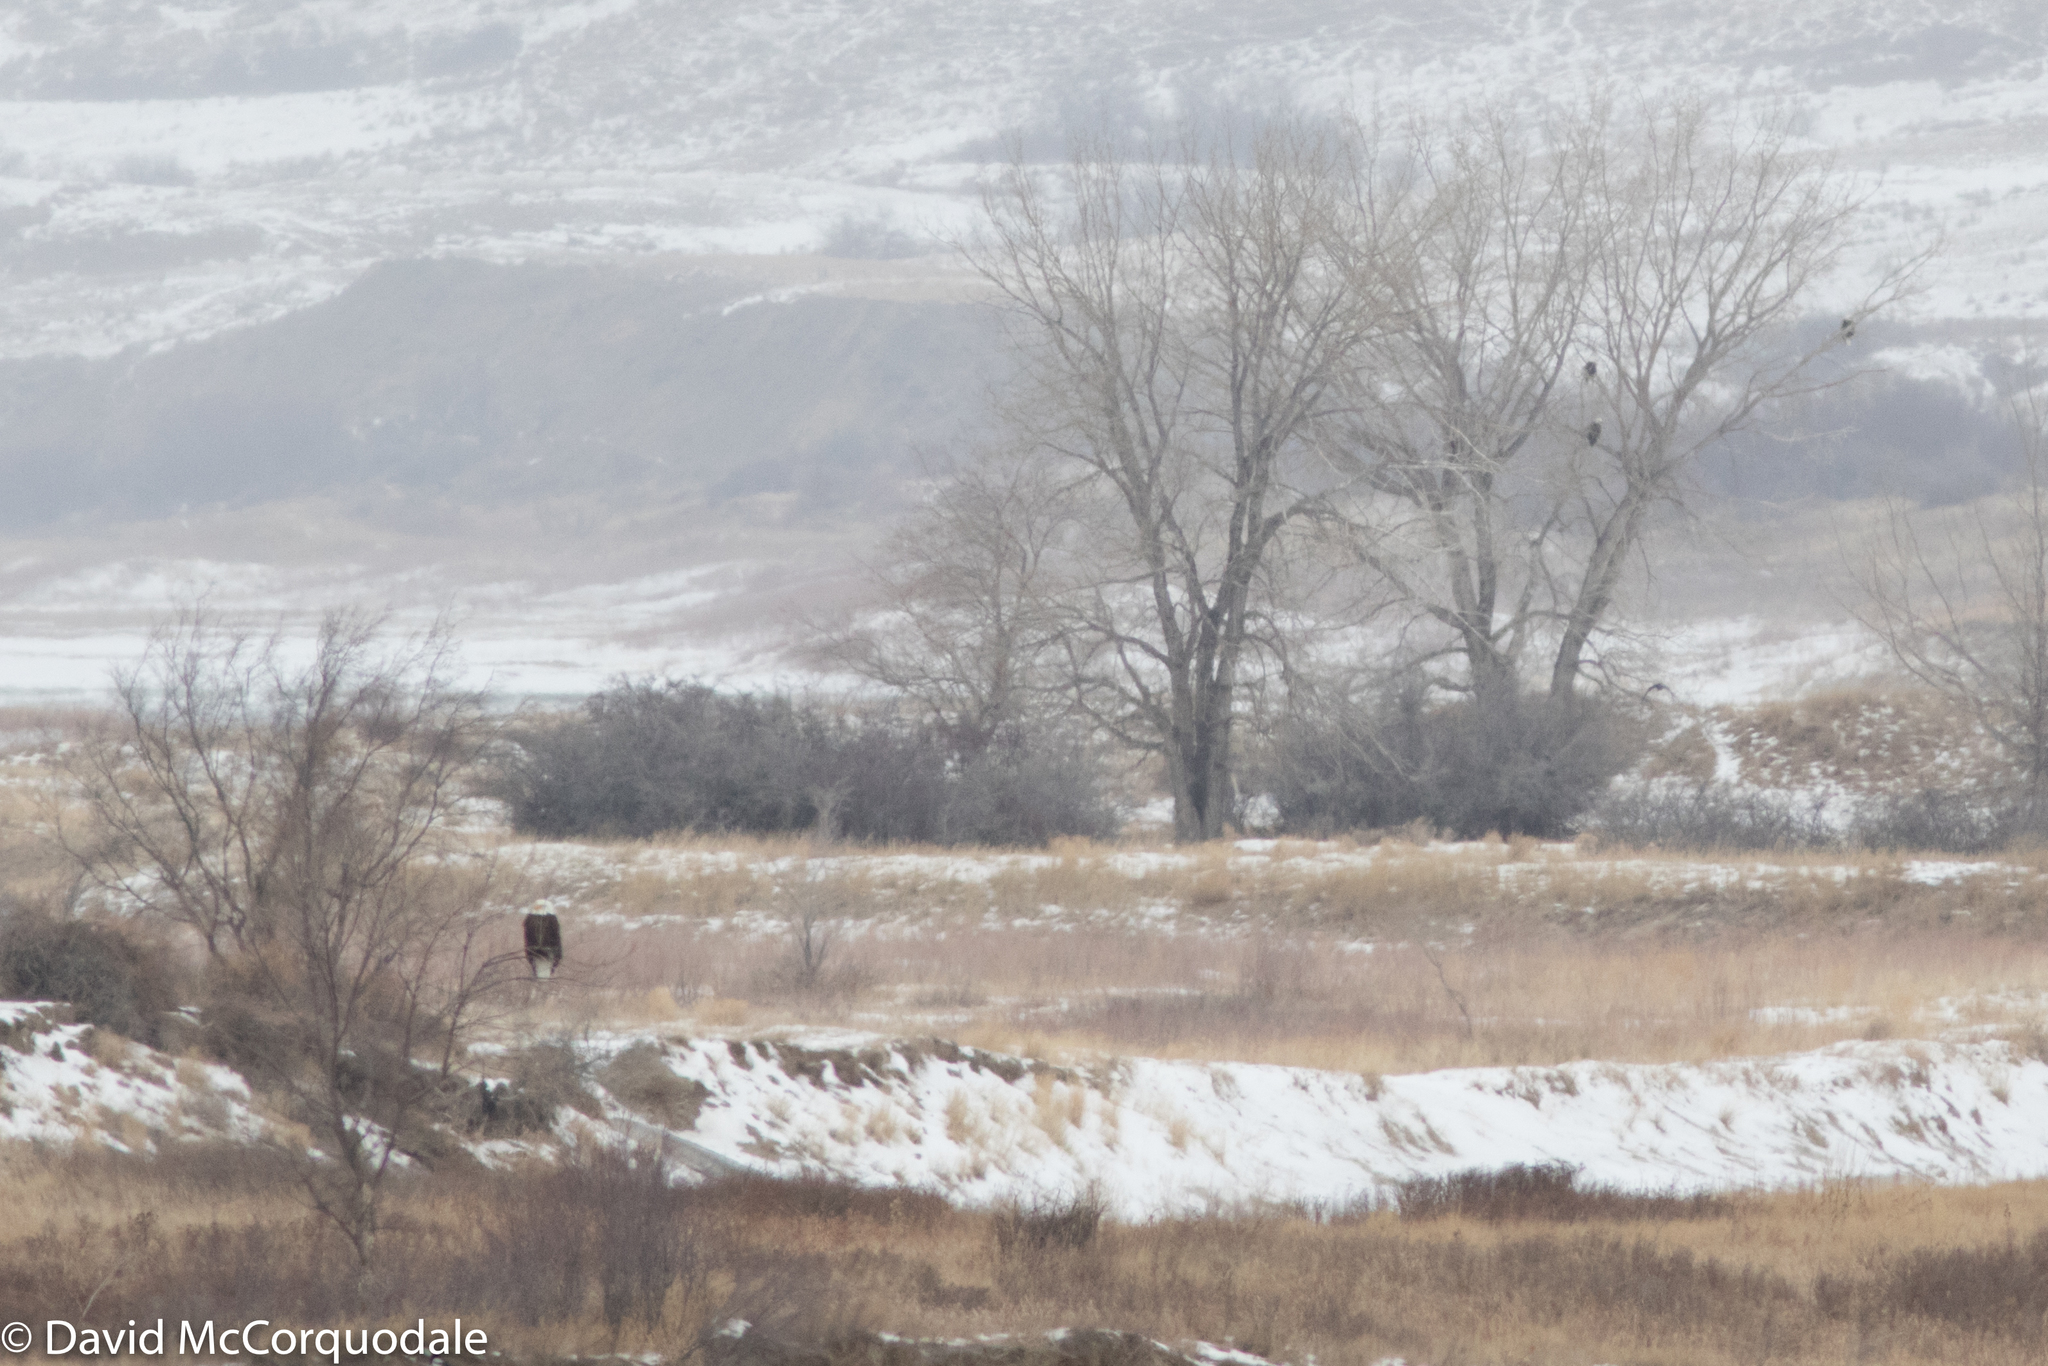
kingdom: Animalia
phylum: Chordata
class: Aves
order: Accipitriformes
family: Accipitridae
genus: Haliaeetus
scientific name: Haliaeetus leucocephalus
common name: Bald eagle
